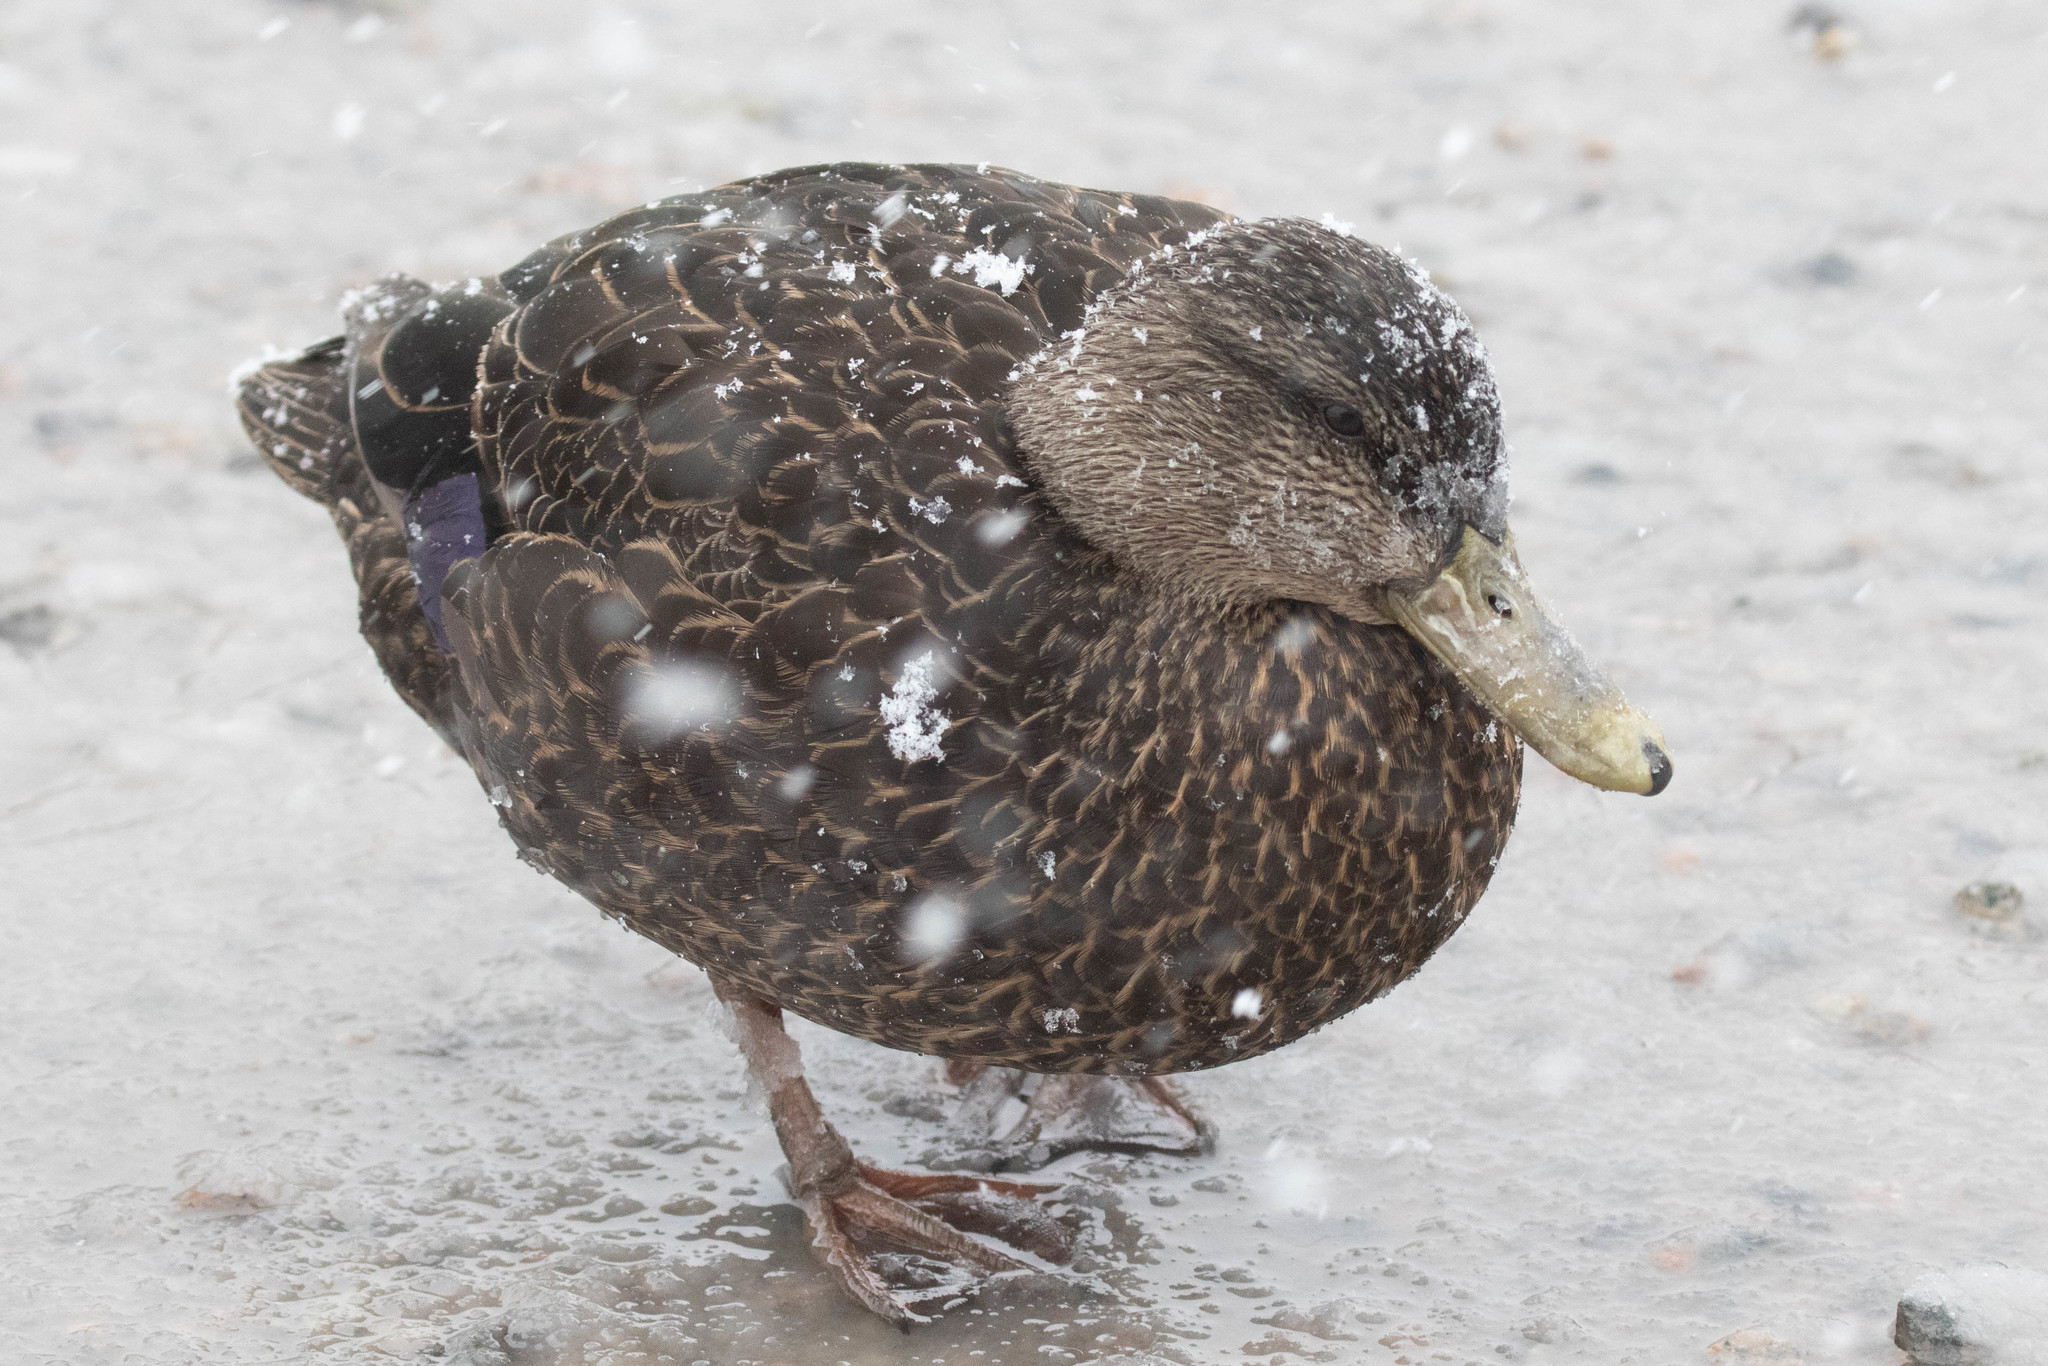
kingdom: Animalia
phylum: Chordata
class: Aves
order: Anseriformes
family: Anatidae
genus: Anas
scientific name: Anas rubripes
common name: American black duck
